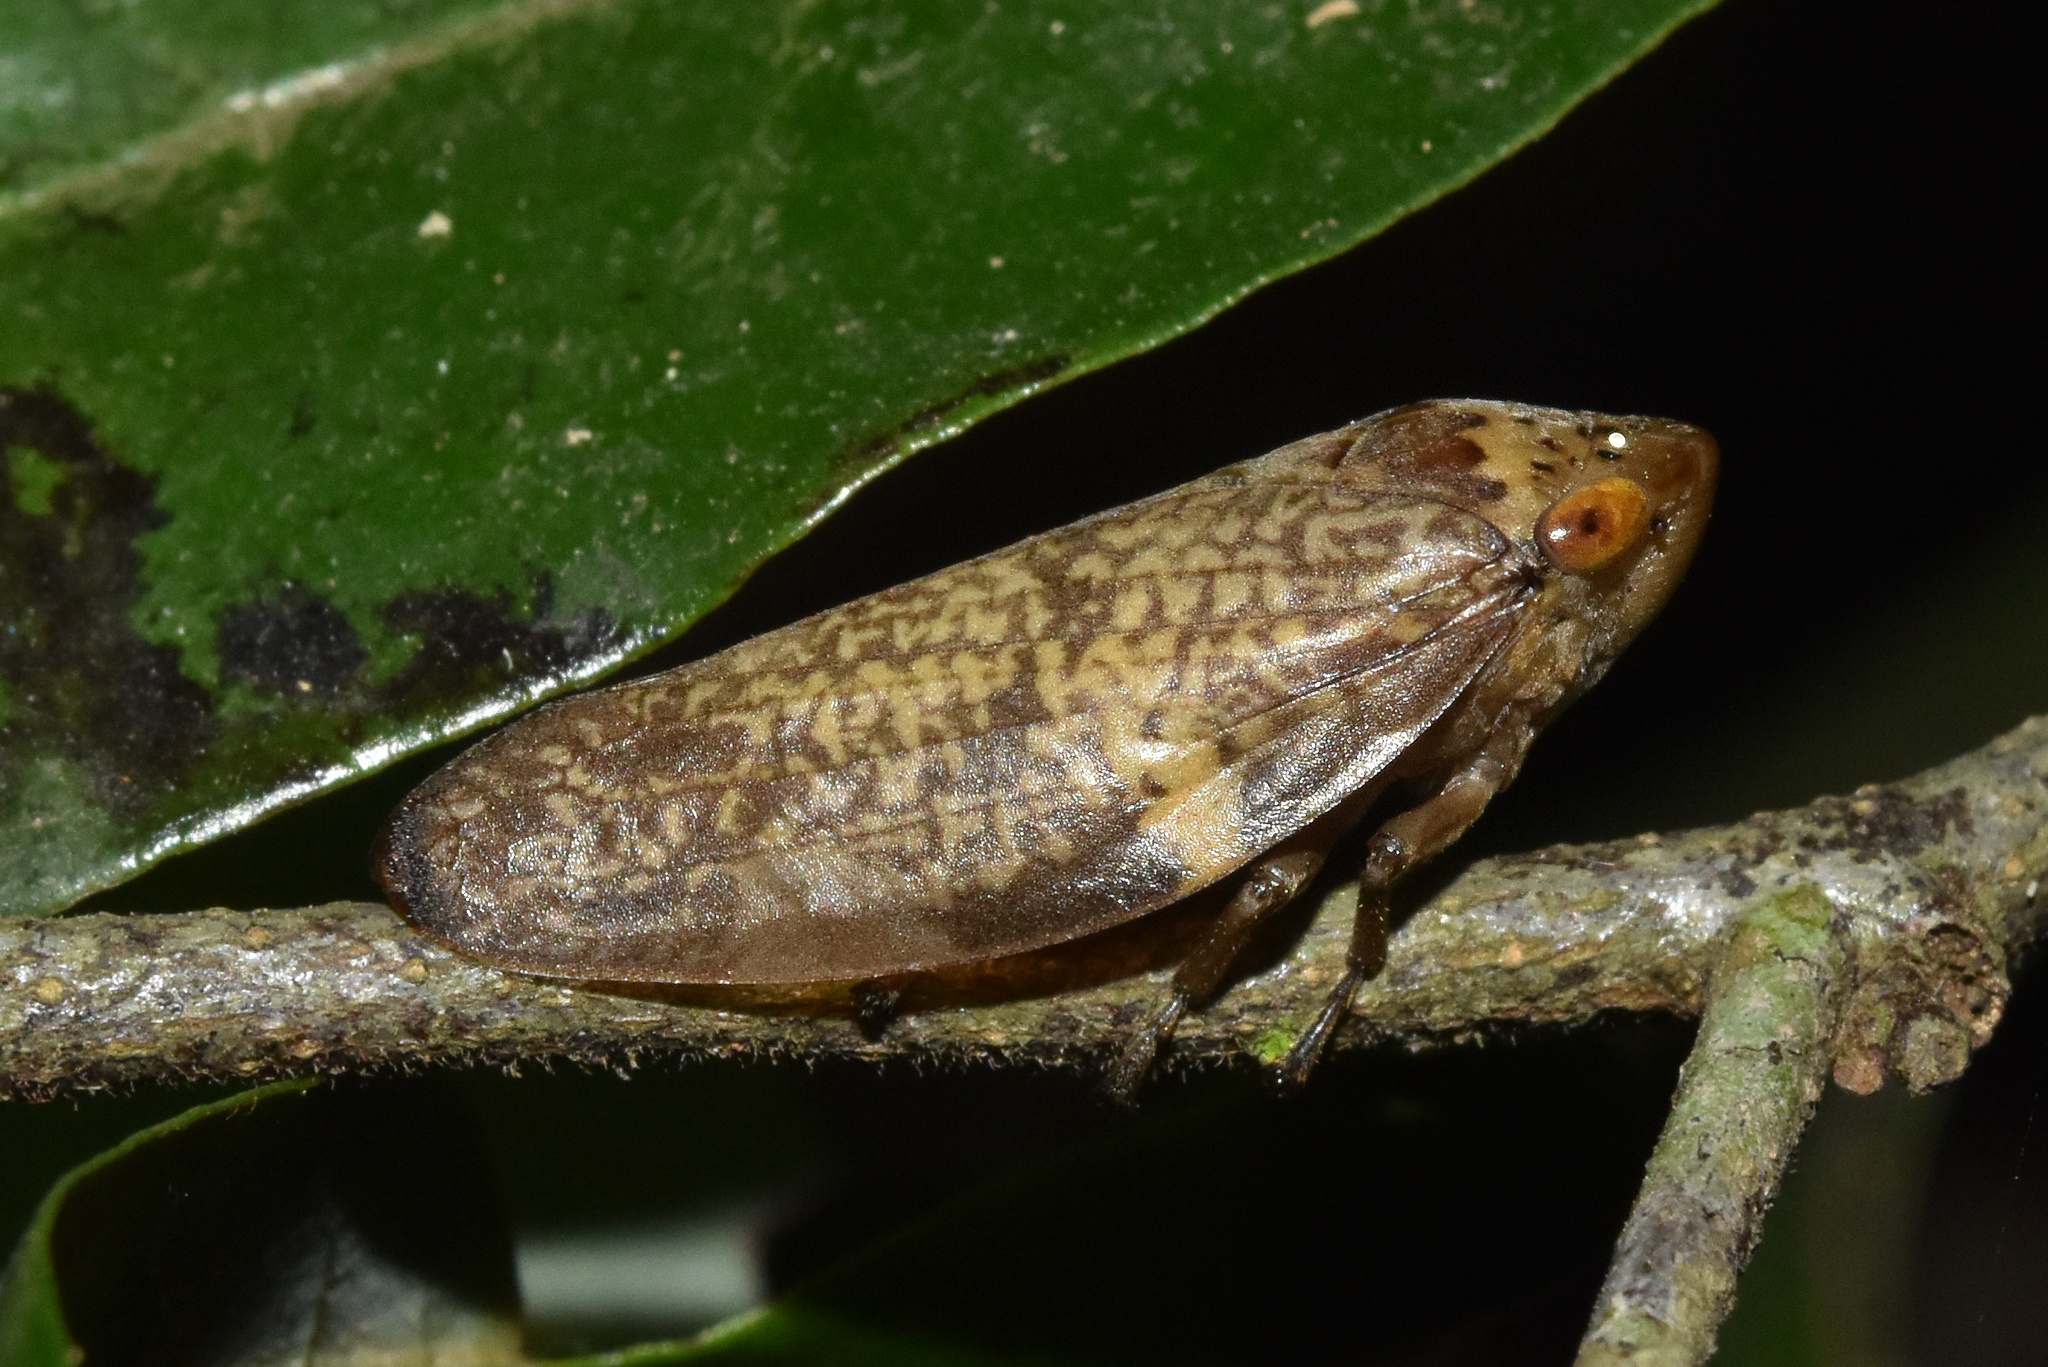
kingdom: Animalia
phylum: Arthropoda
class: Insecta
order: Hemiptera
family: Aphrophoridae
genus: Ptyelus
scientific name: Ptyelus grossus
